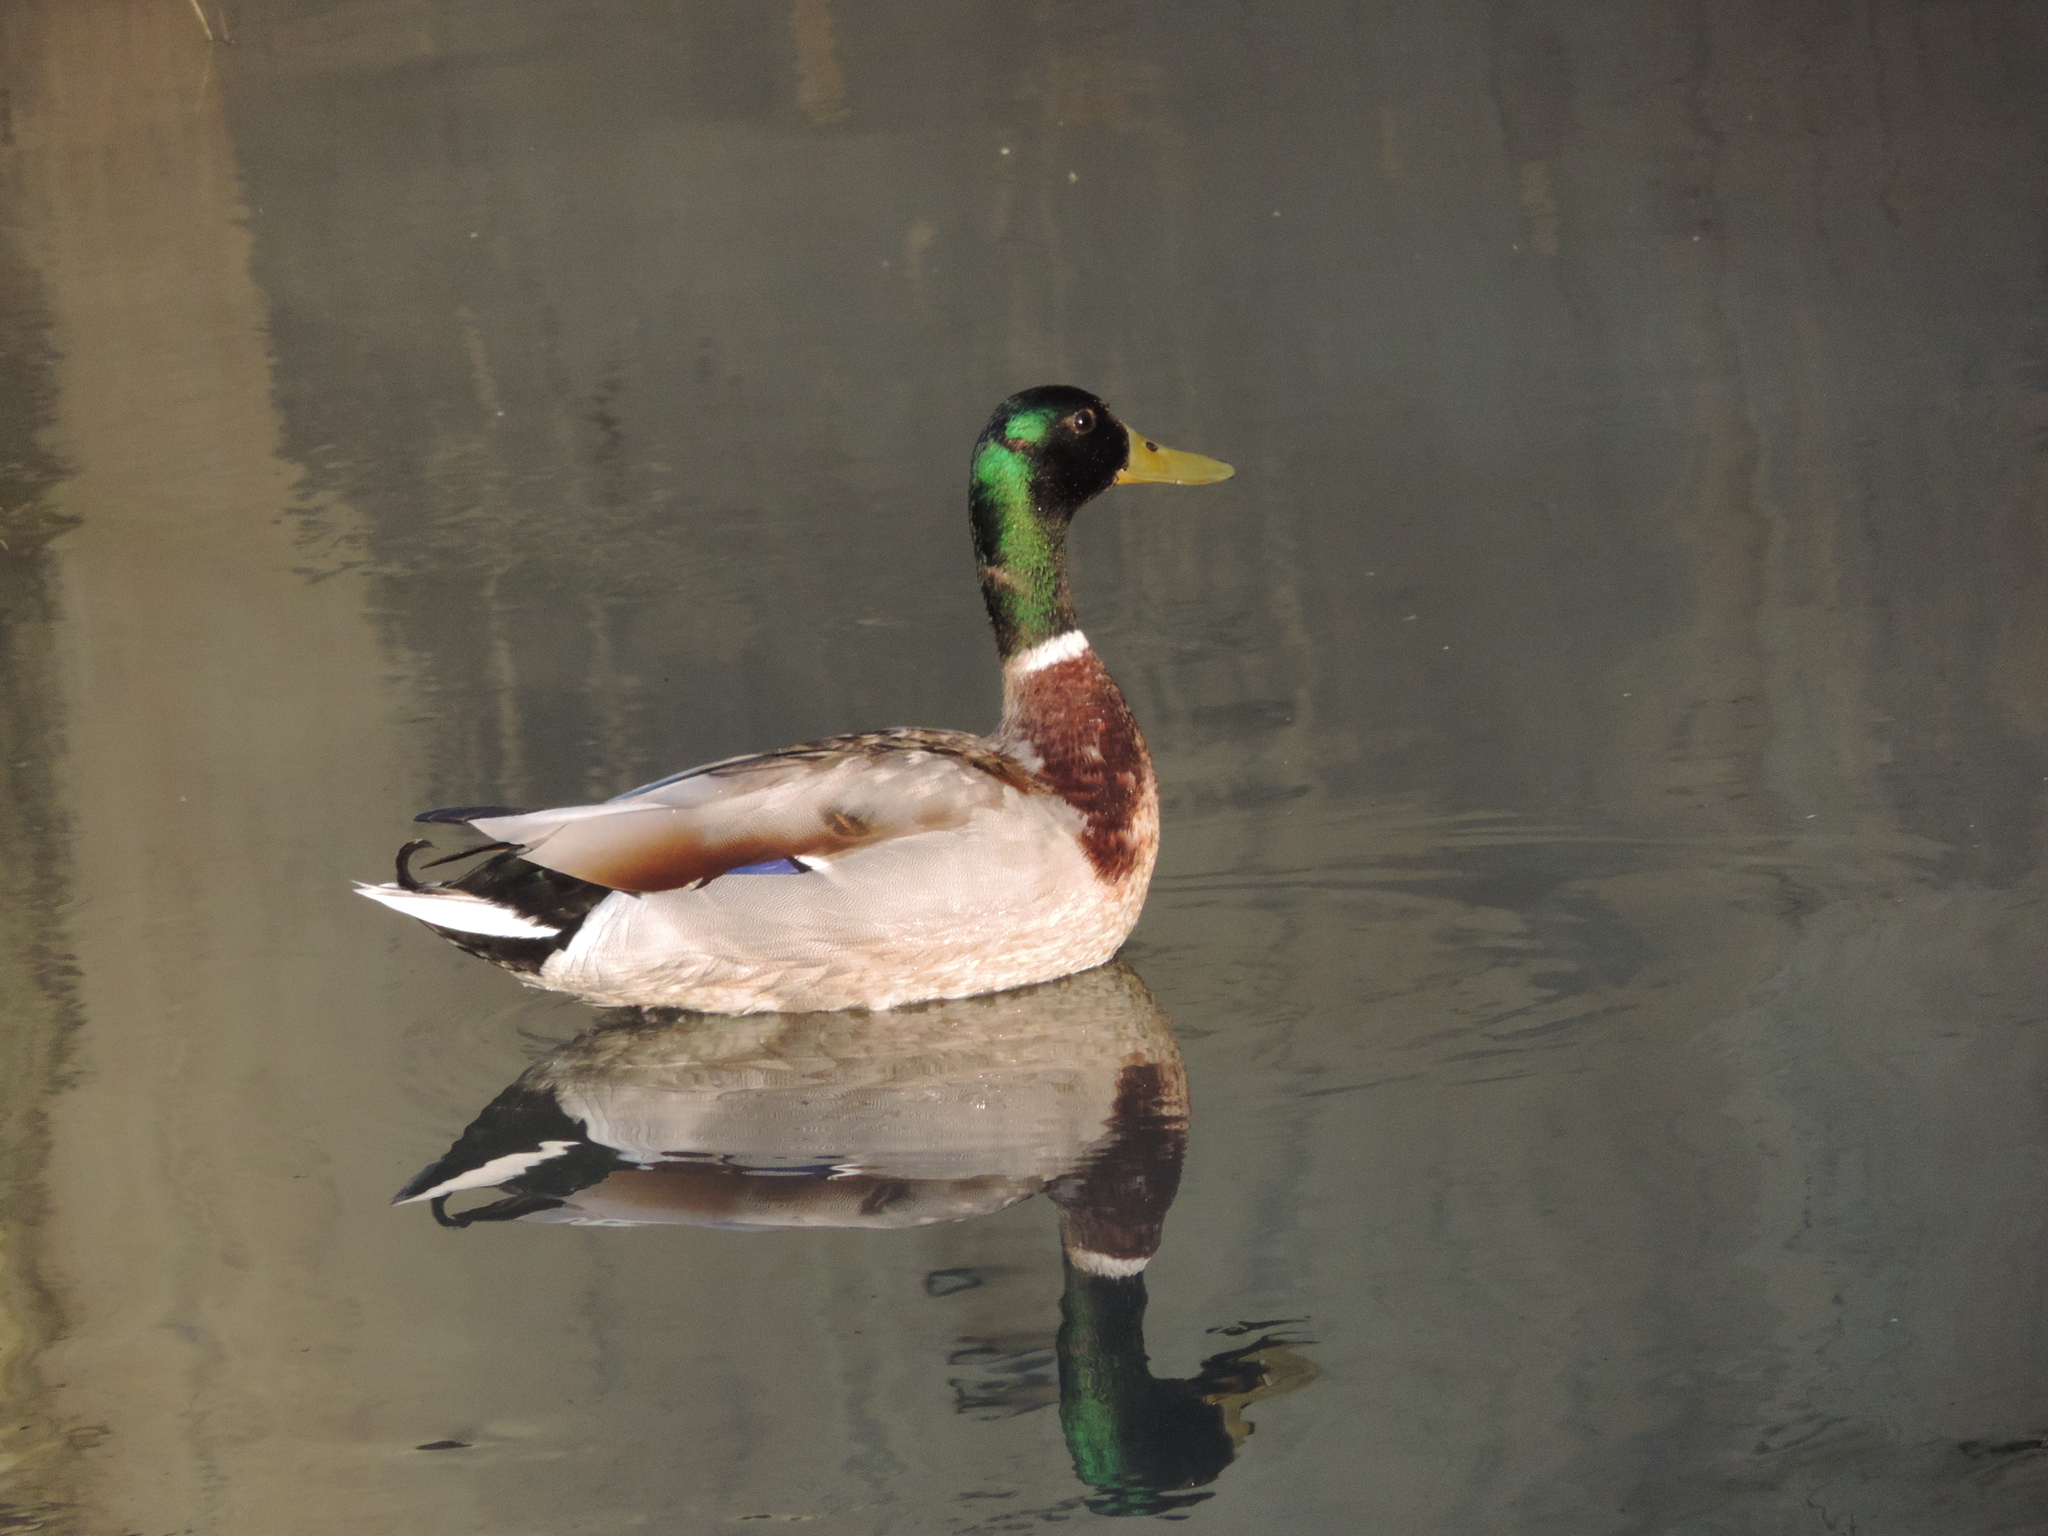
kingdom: Animalia
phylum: Chordata
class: Aves
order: Anseriformes
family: Anatidae
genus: Anas
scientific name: Anas platyrhynchos
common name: Mallard
